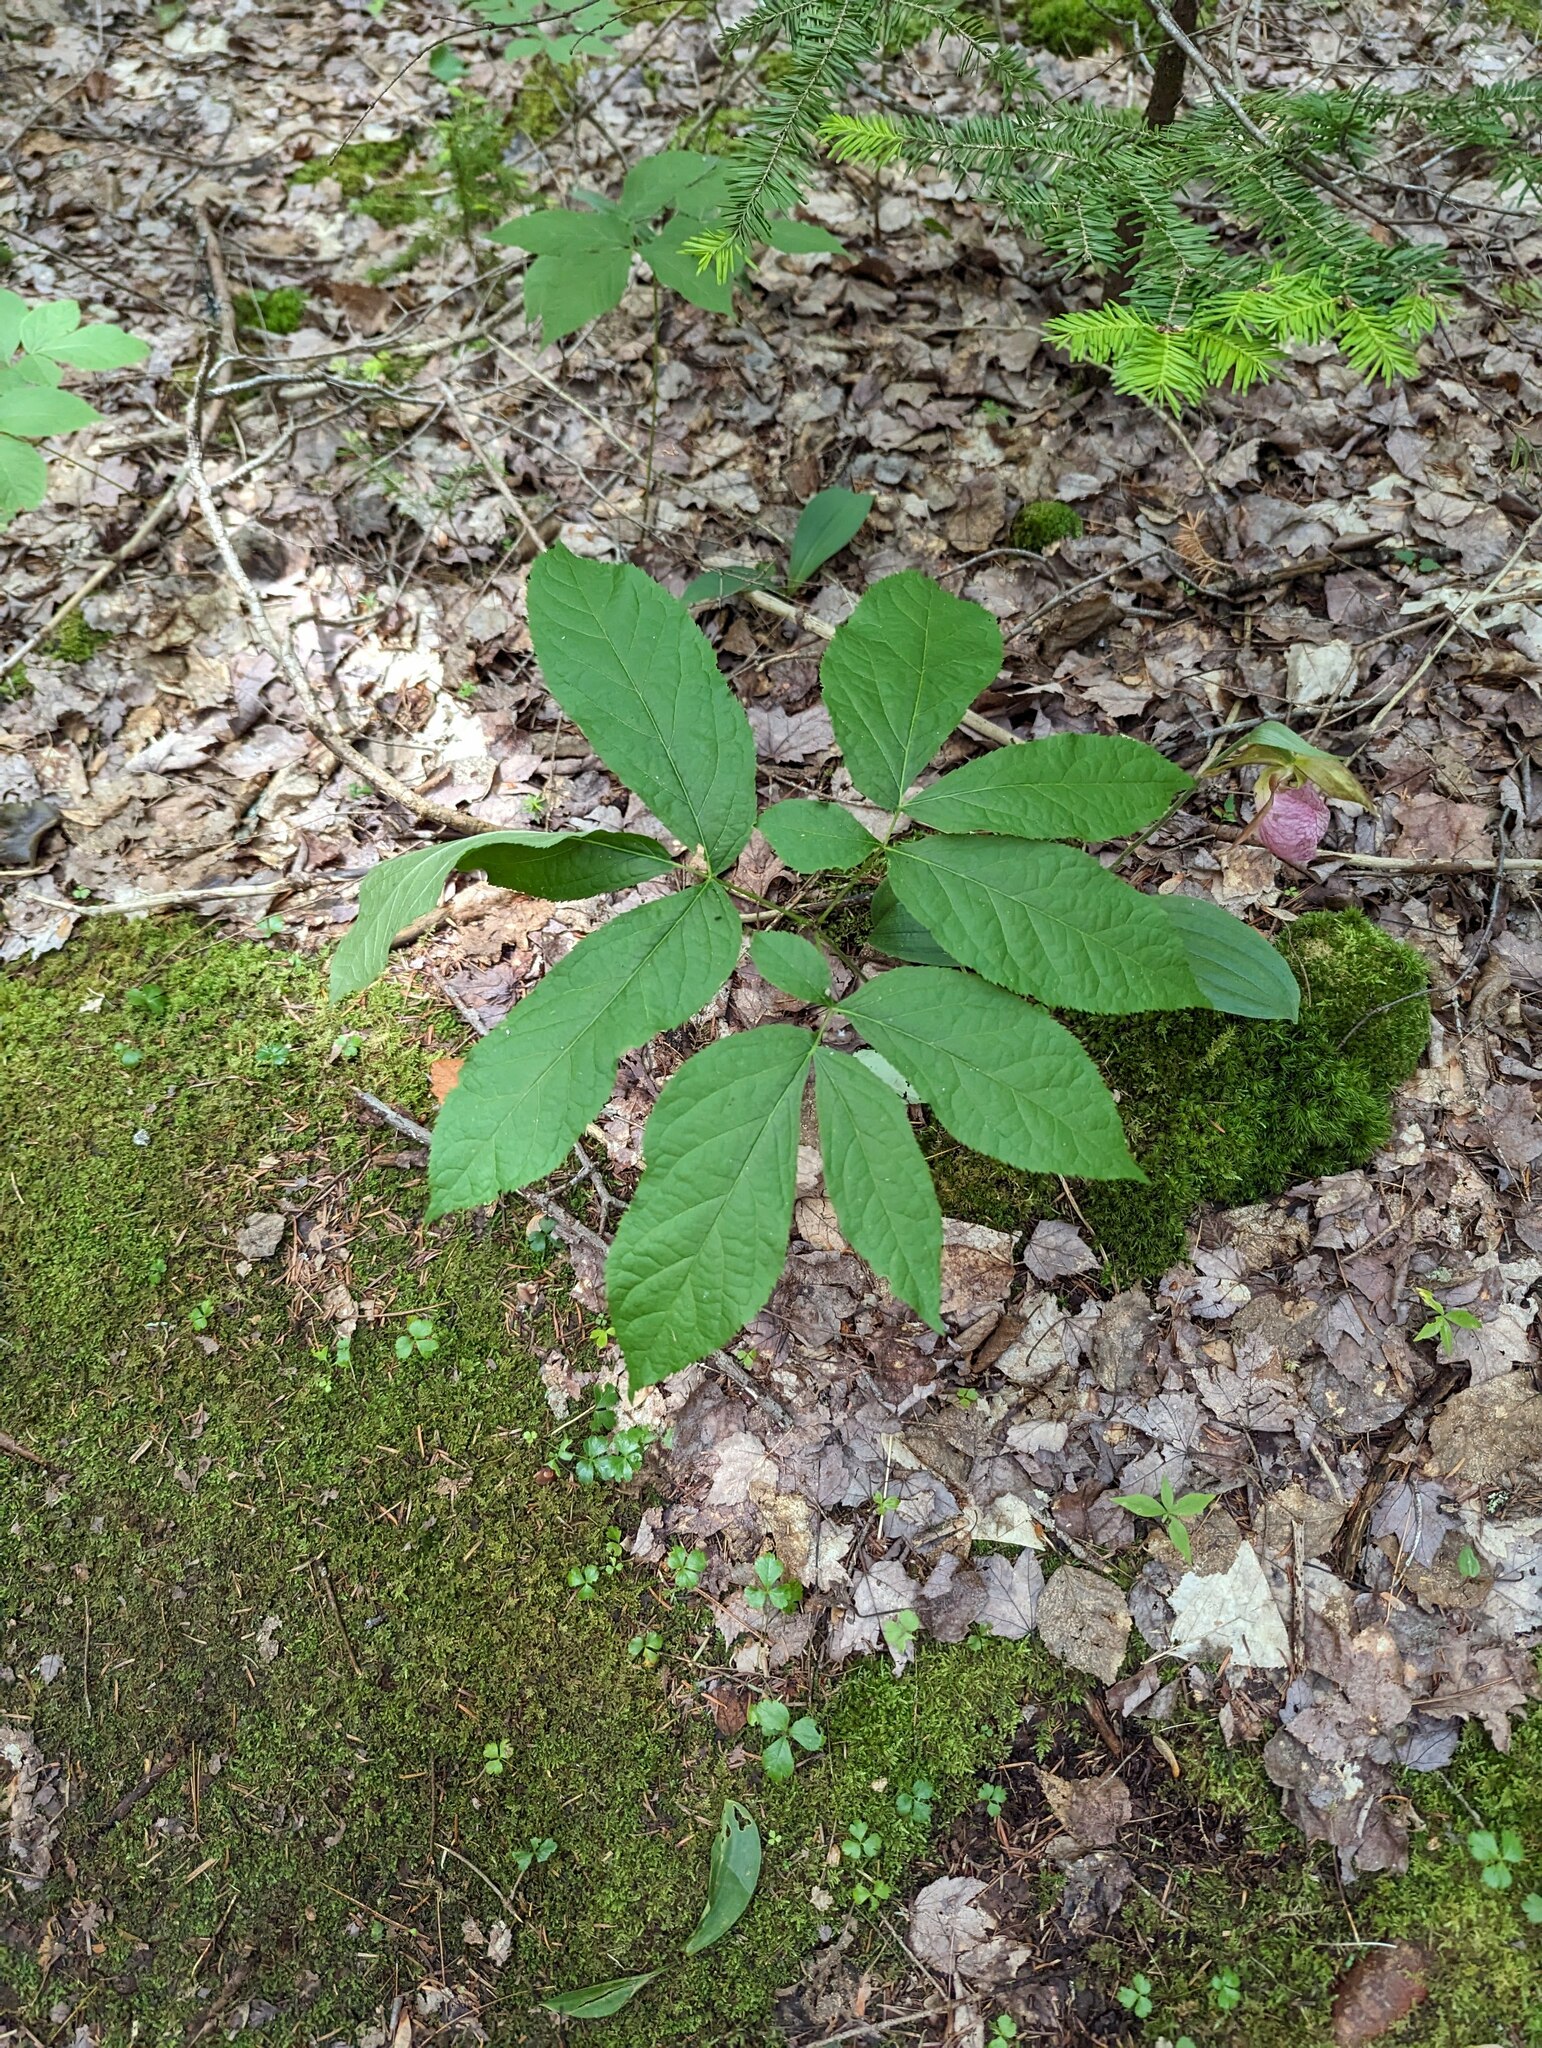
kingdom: Plantae
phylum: Tracheophyta
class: Magnoliopsida
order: Apiales
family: Araliaceae
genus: Aralia
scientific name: Aralia nudicaulis
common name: Wild sarsaparilla
